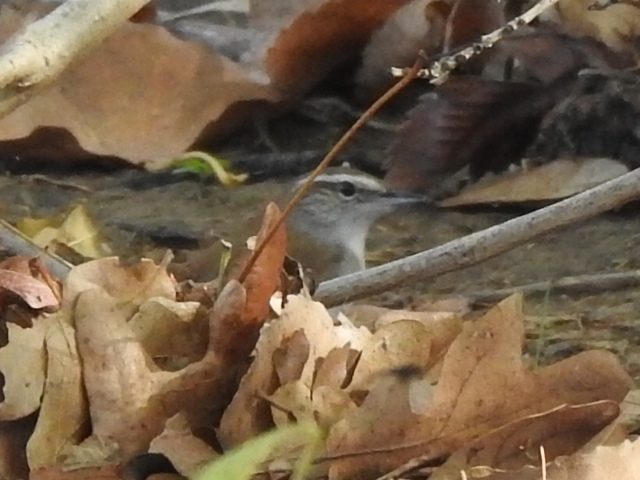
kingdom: Animalia
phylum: Chordata
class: Aves
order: Passeriformes
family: Troglodytidae
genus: Thryomanes
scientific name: Thryomanes bewickii
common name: Bewick's wren
